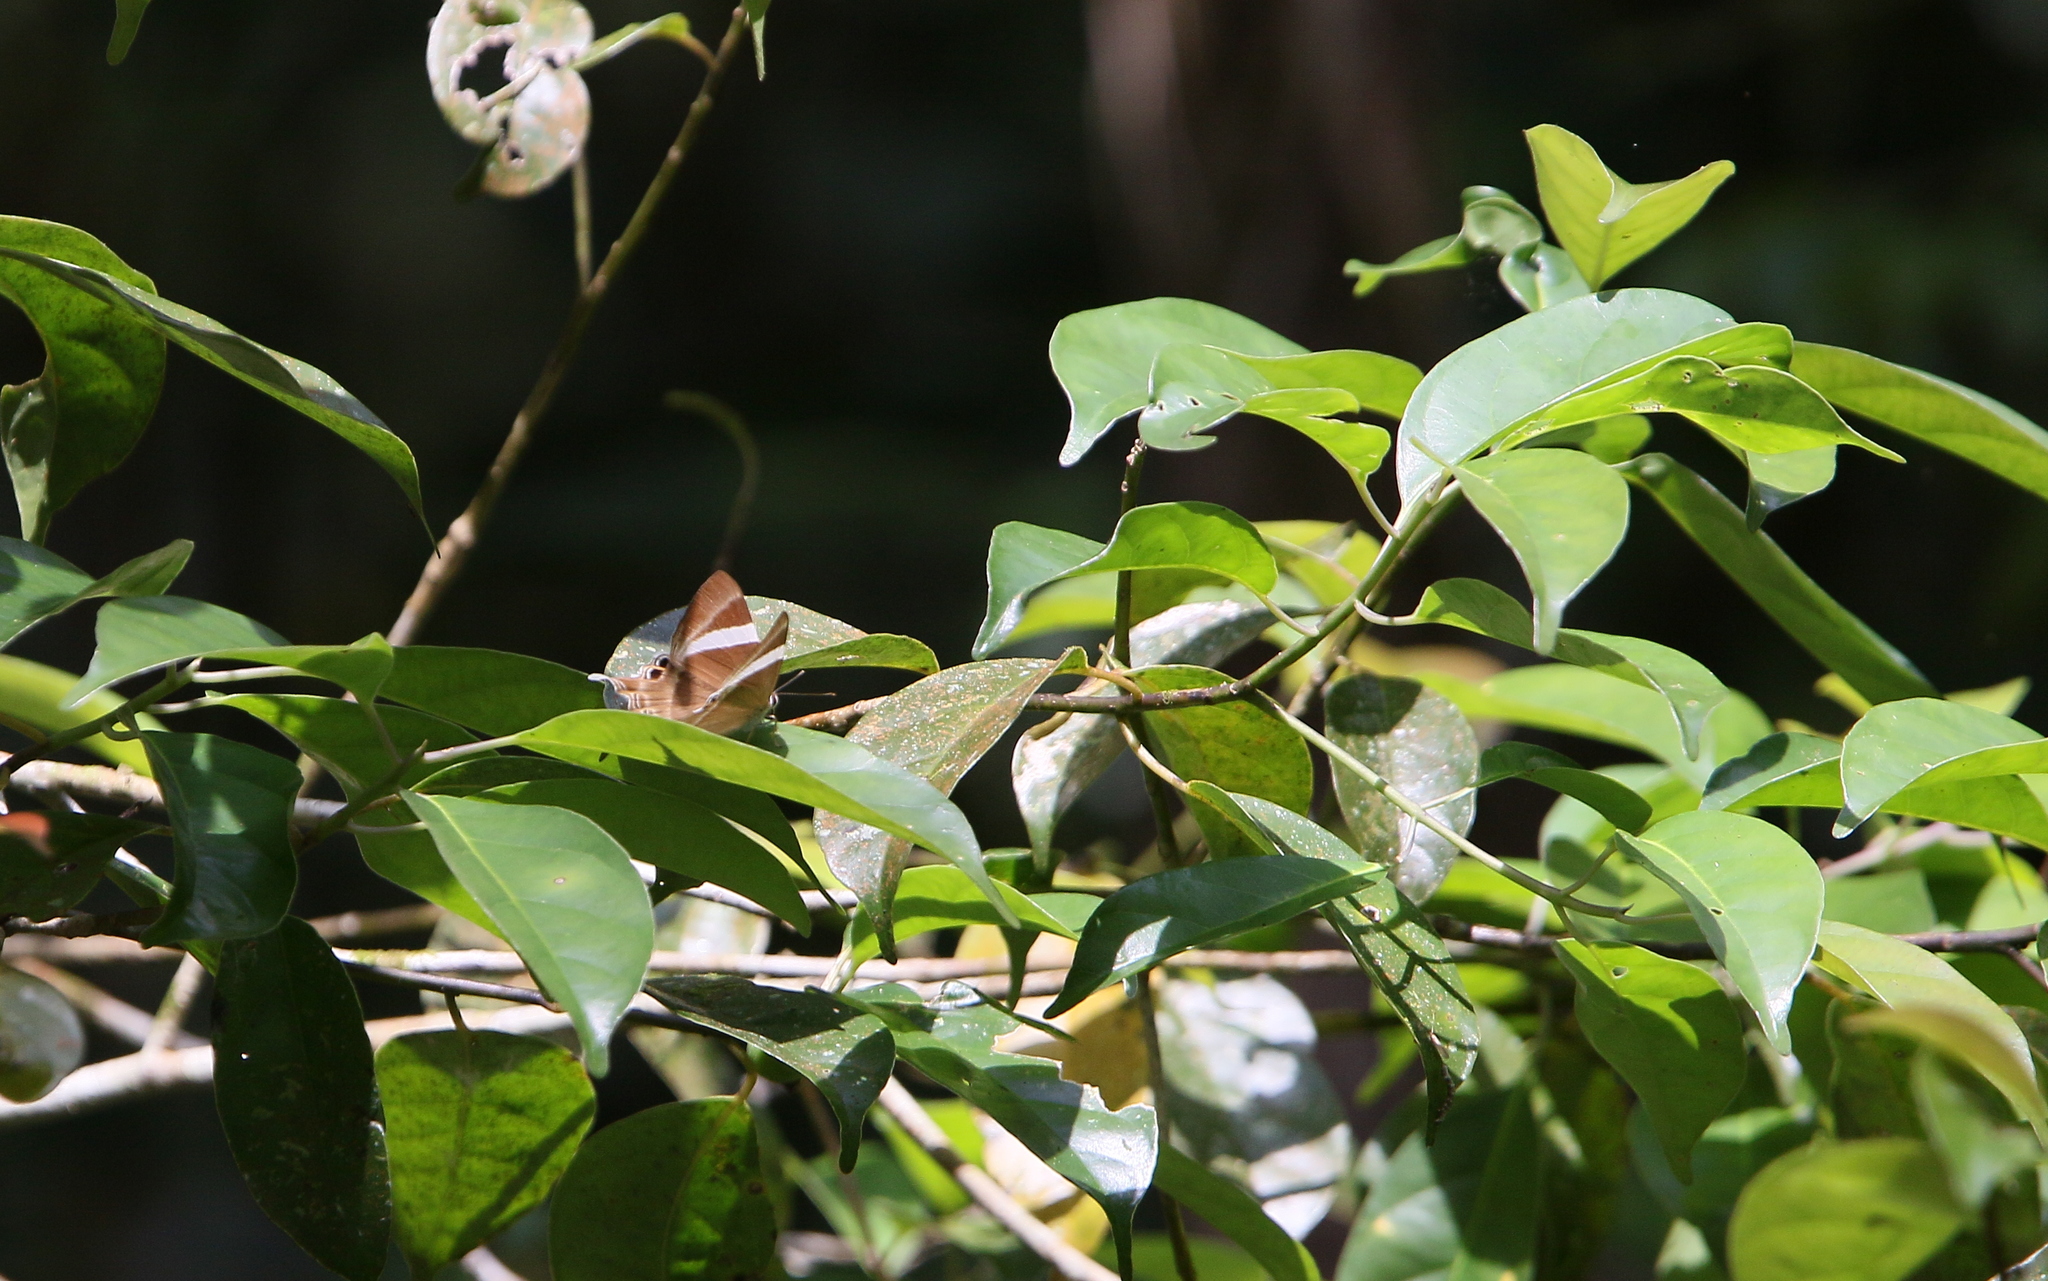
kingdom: Animalia
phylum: Arthropoda
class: Insecta
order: Lepidoptera
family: Lycaenidae
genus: Abisara
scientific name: Abisara neophron
